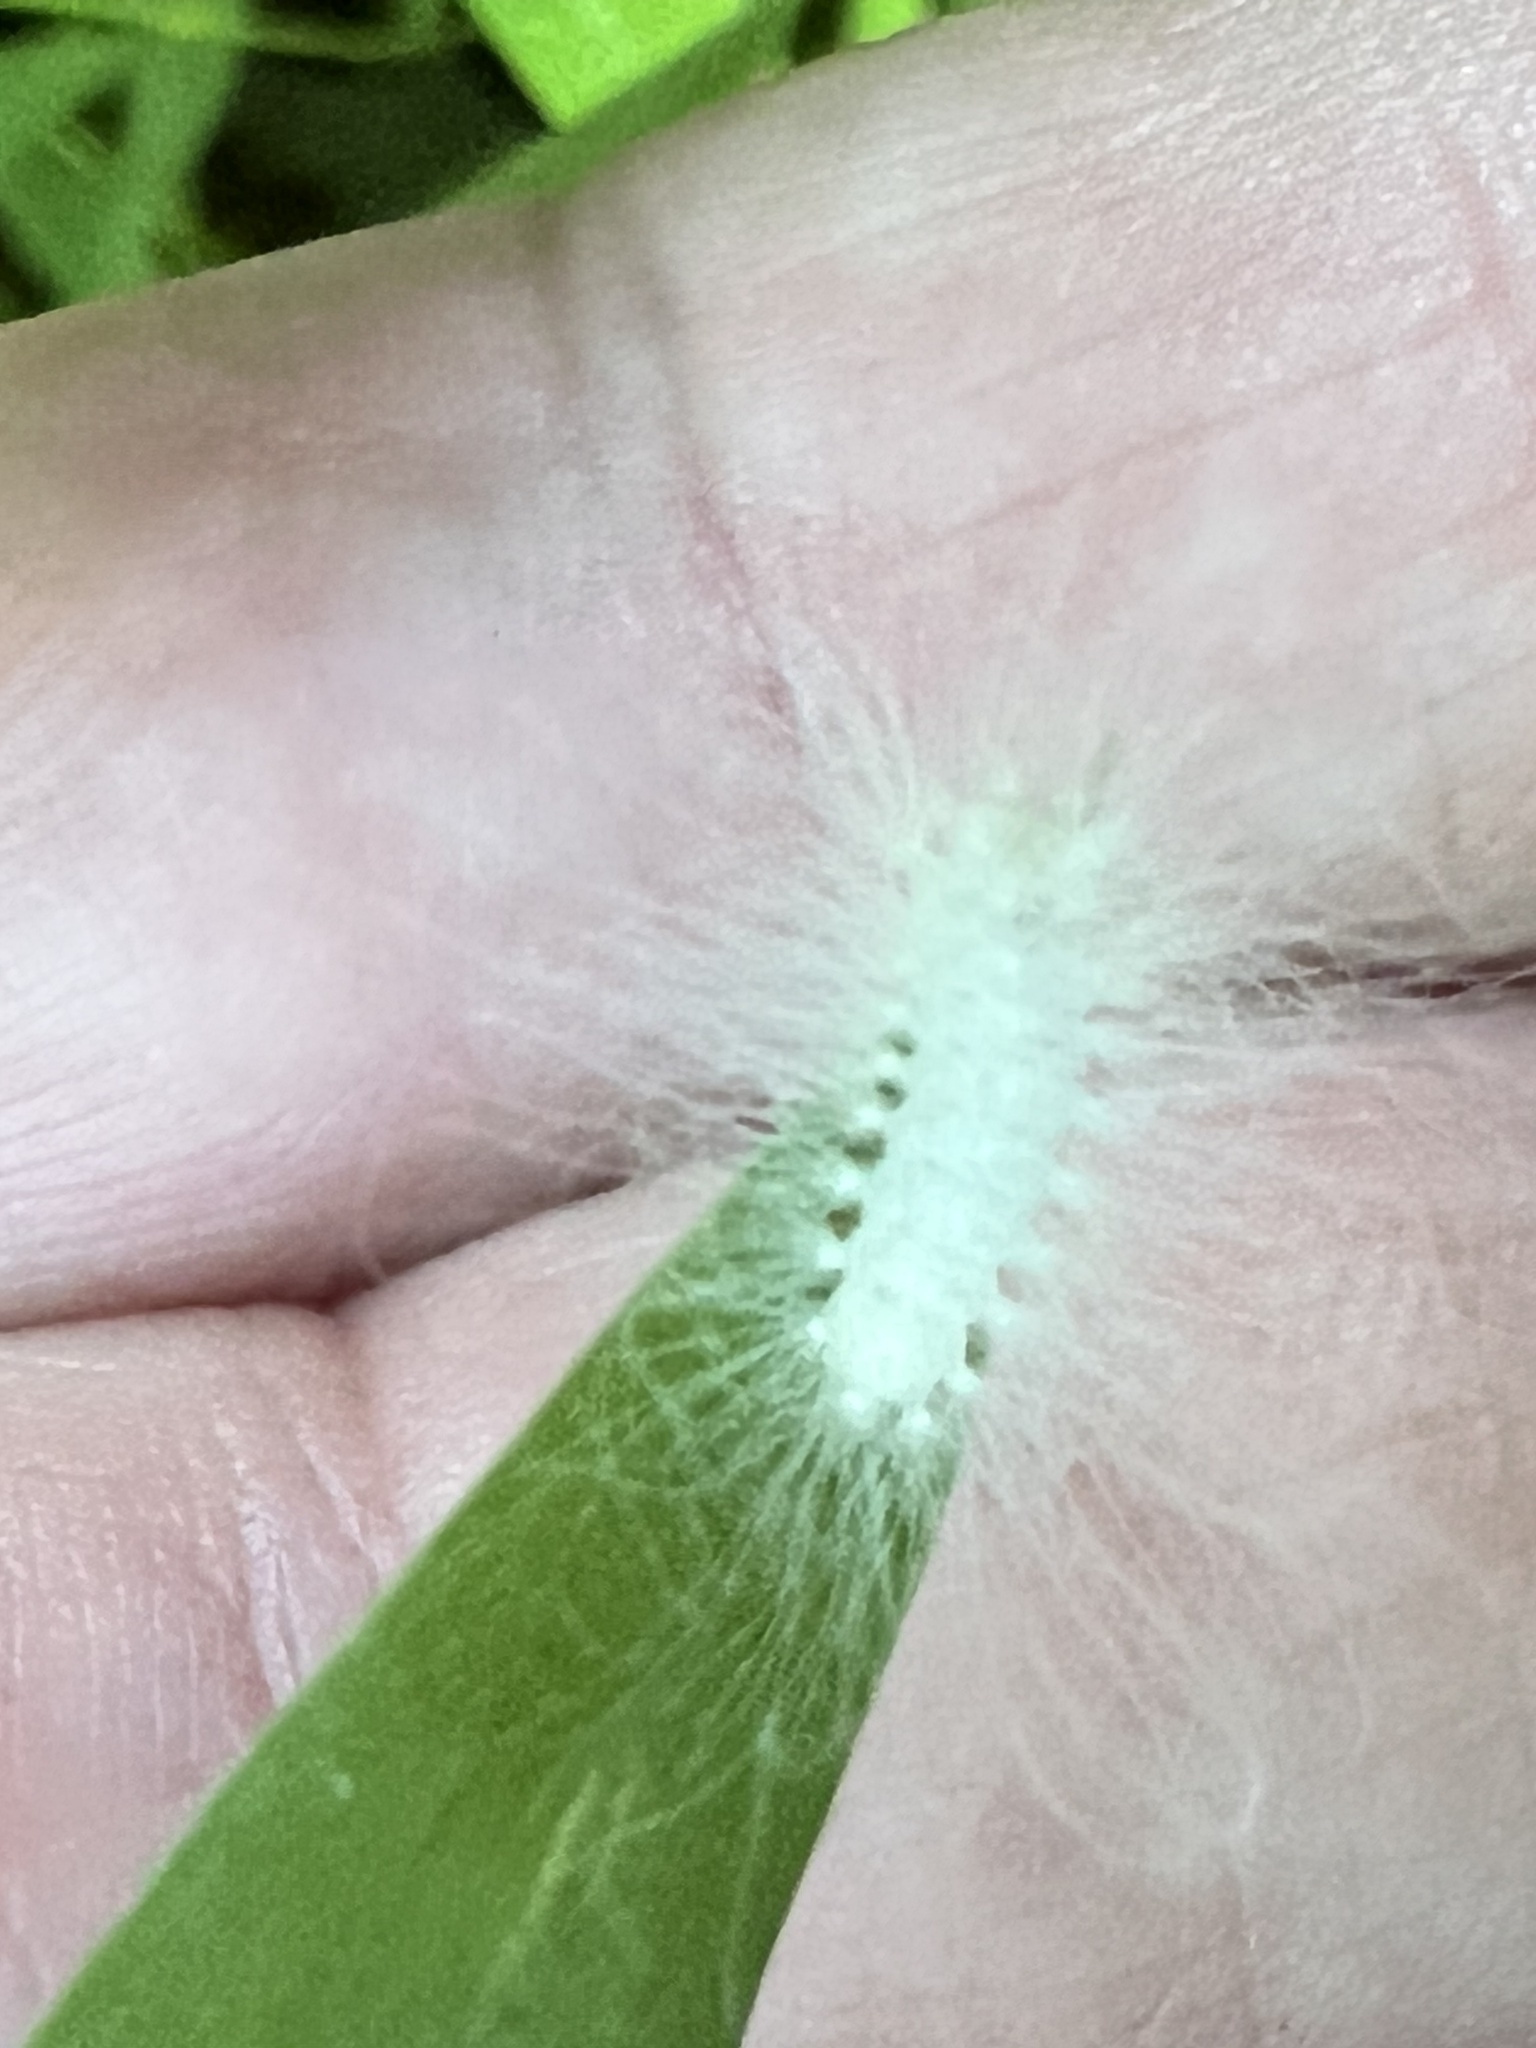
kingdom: Animalia
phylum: Arthropoda
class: Insecta
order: Lepidoptera
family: Megalopygidae
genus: Megalopyge
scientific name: Megalopyge
